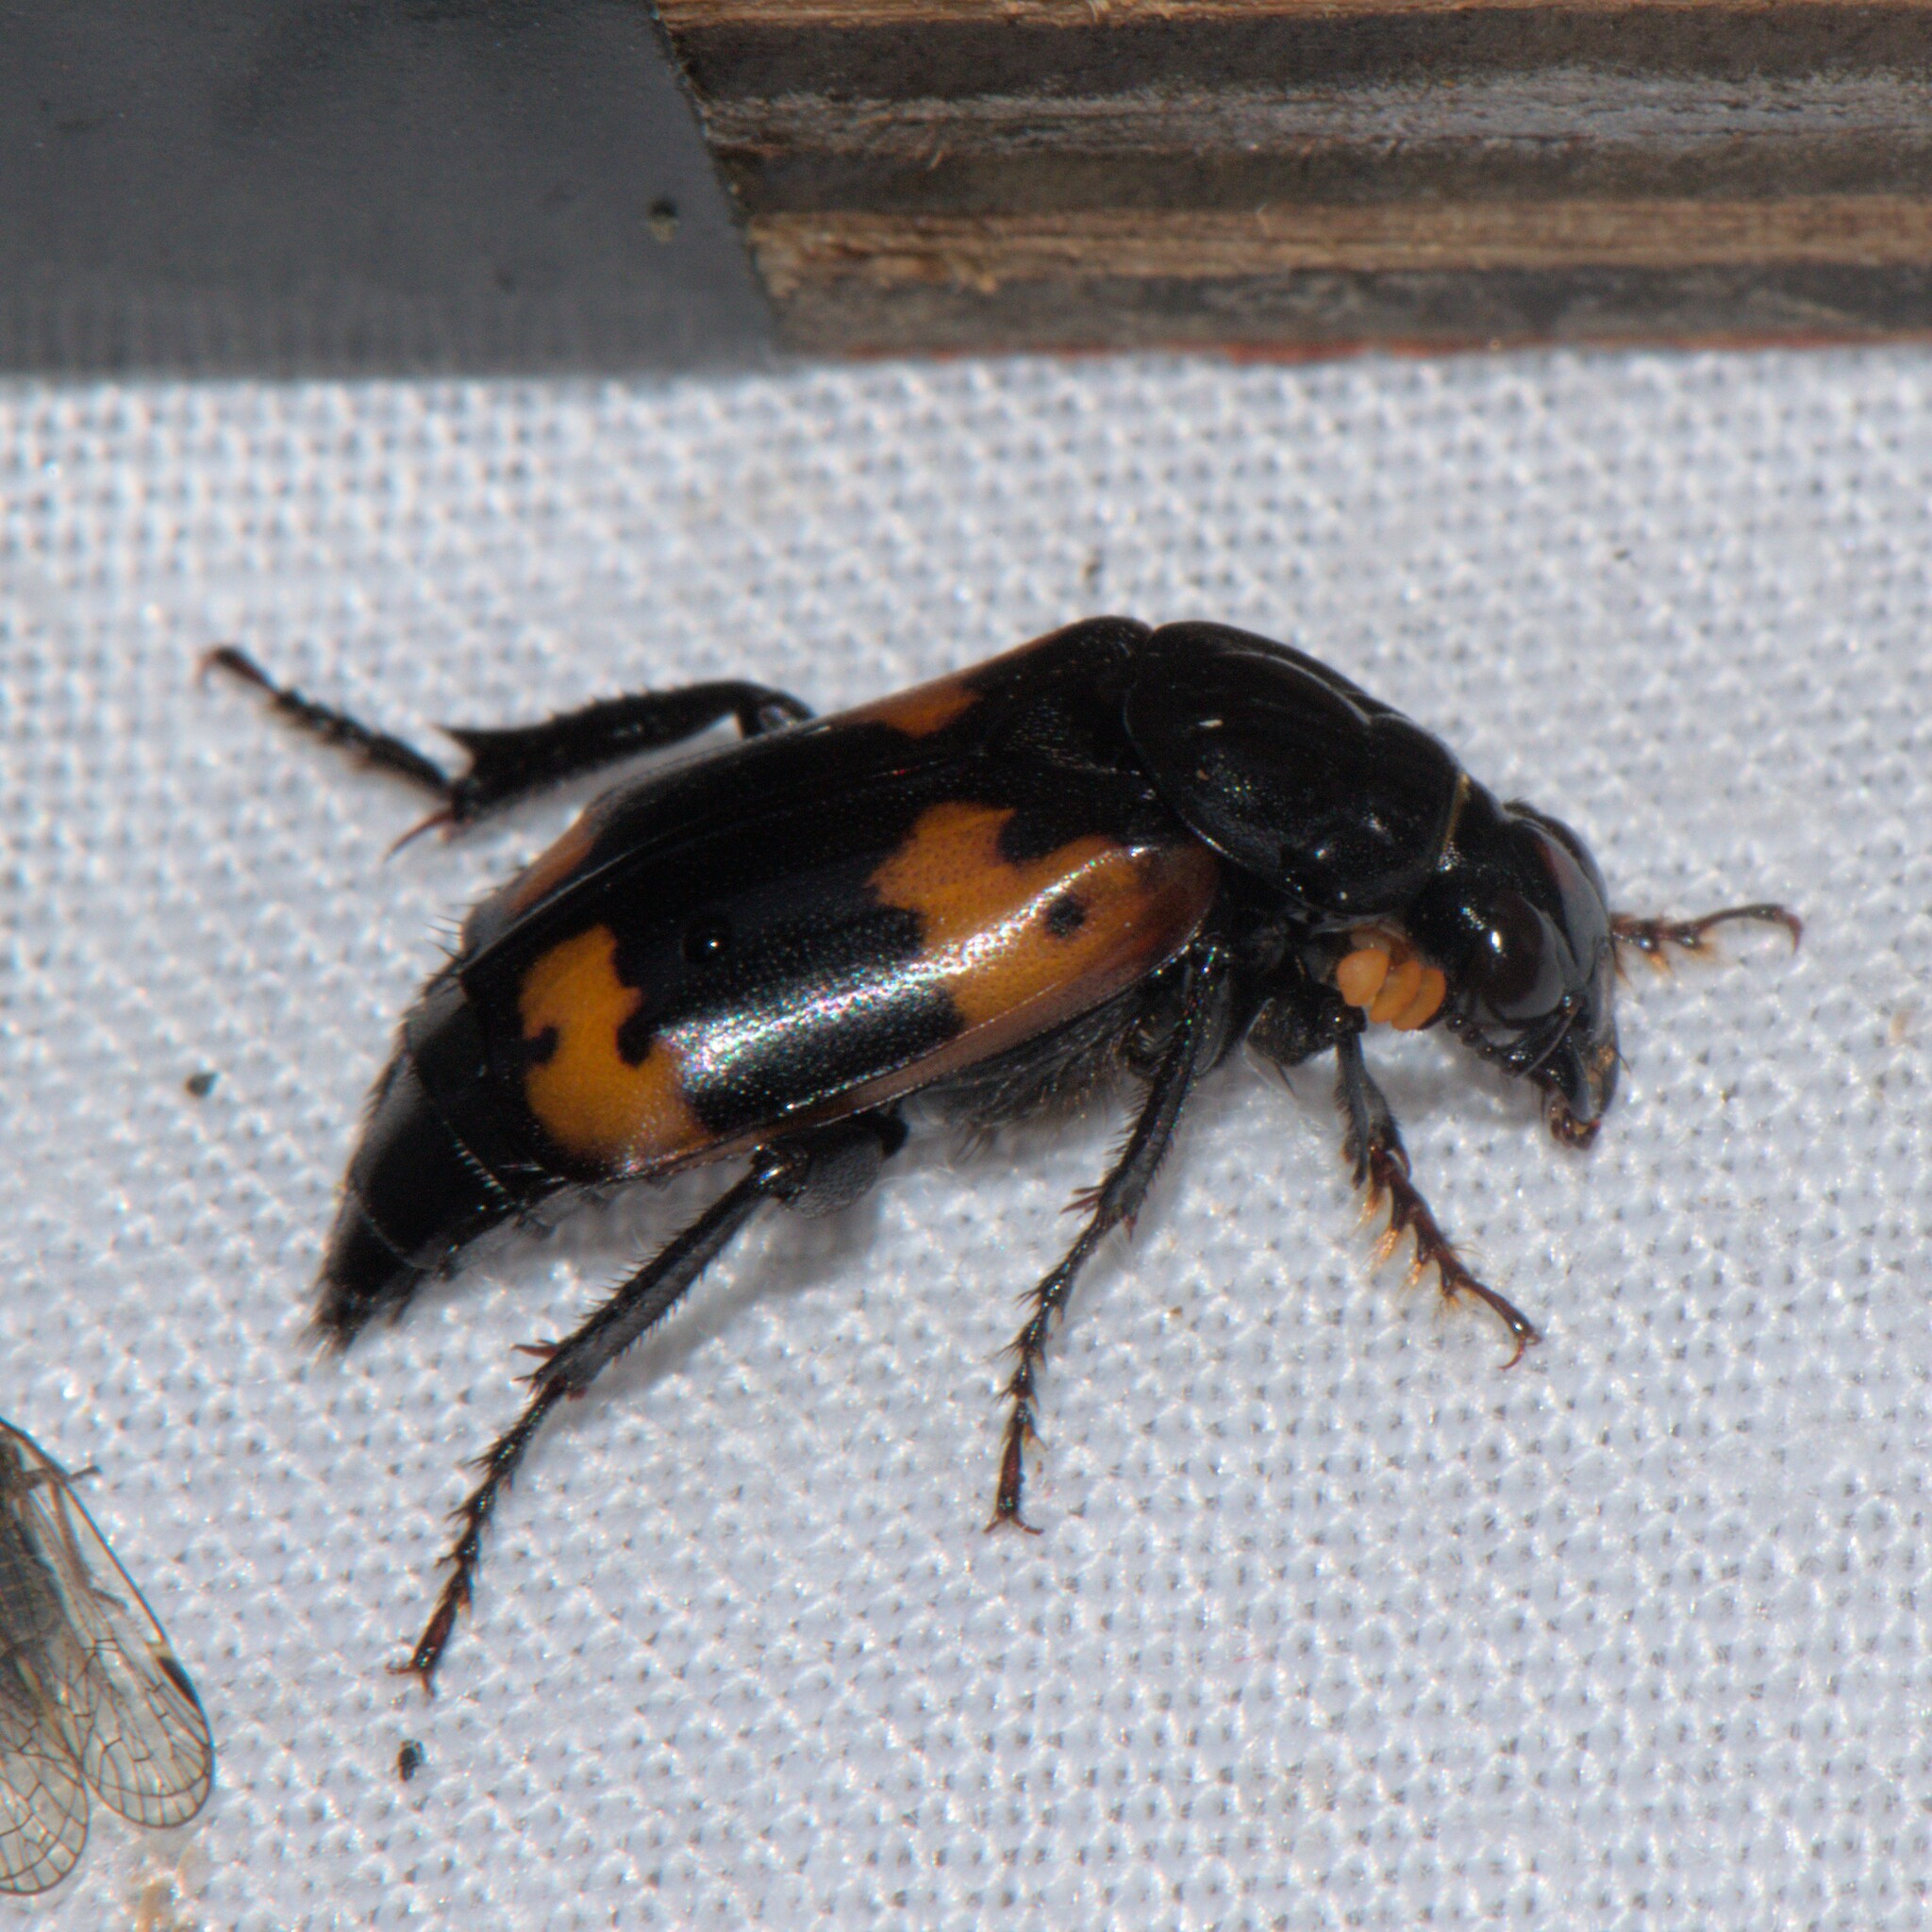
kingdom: Animalia
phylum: Arthropoda
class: Insecta
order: Coleoptera
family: Staphylinidae
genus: Nicrophorus
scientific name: Nicrophorus nepalensis
